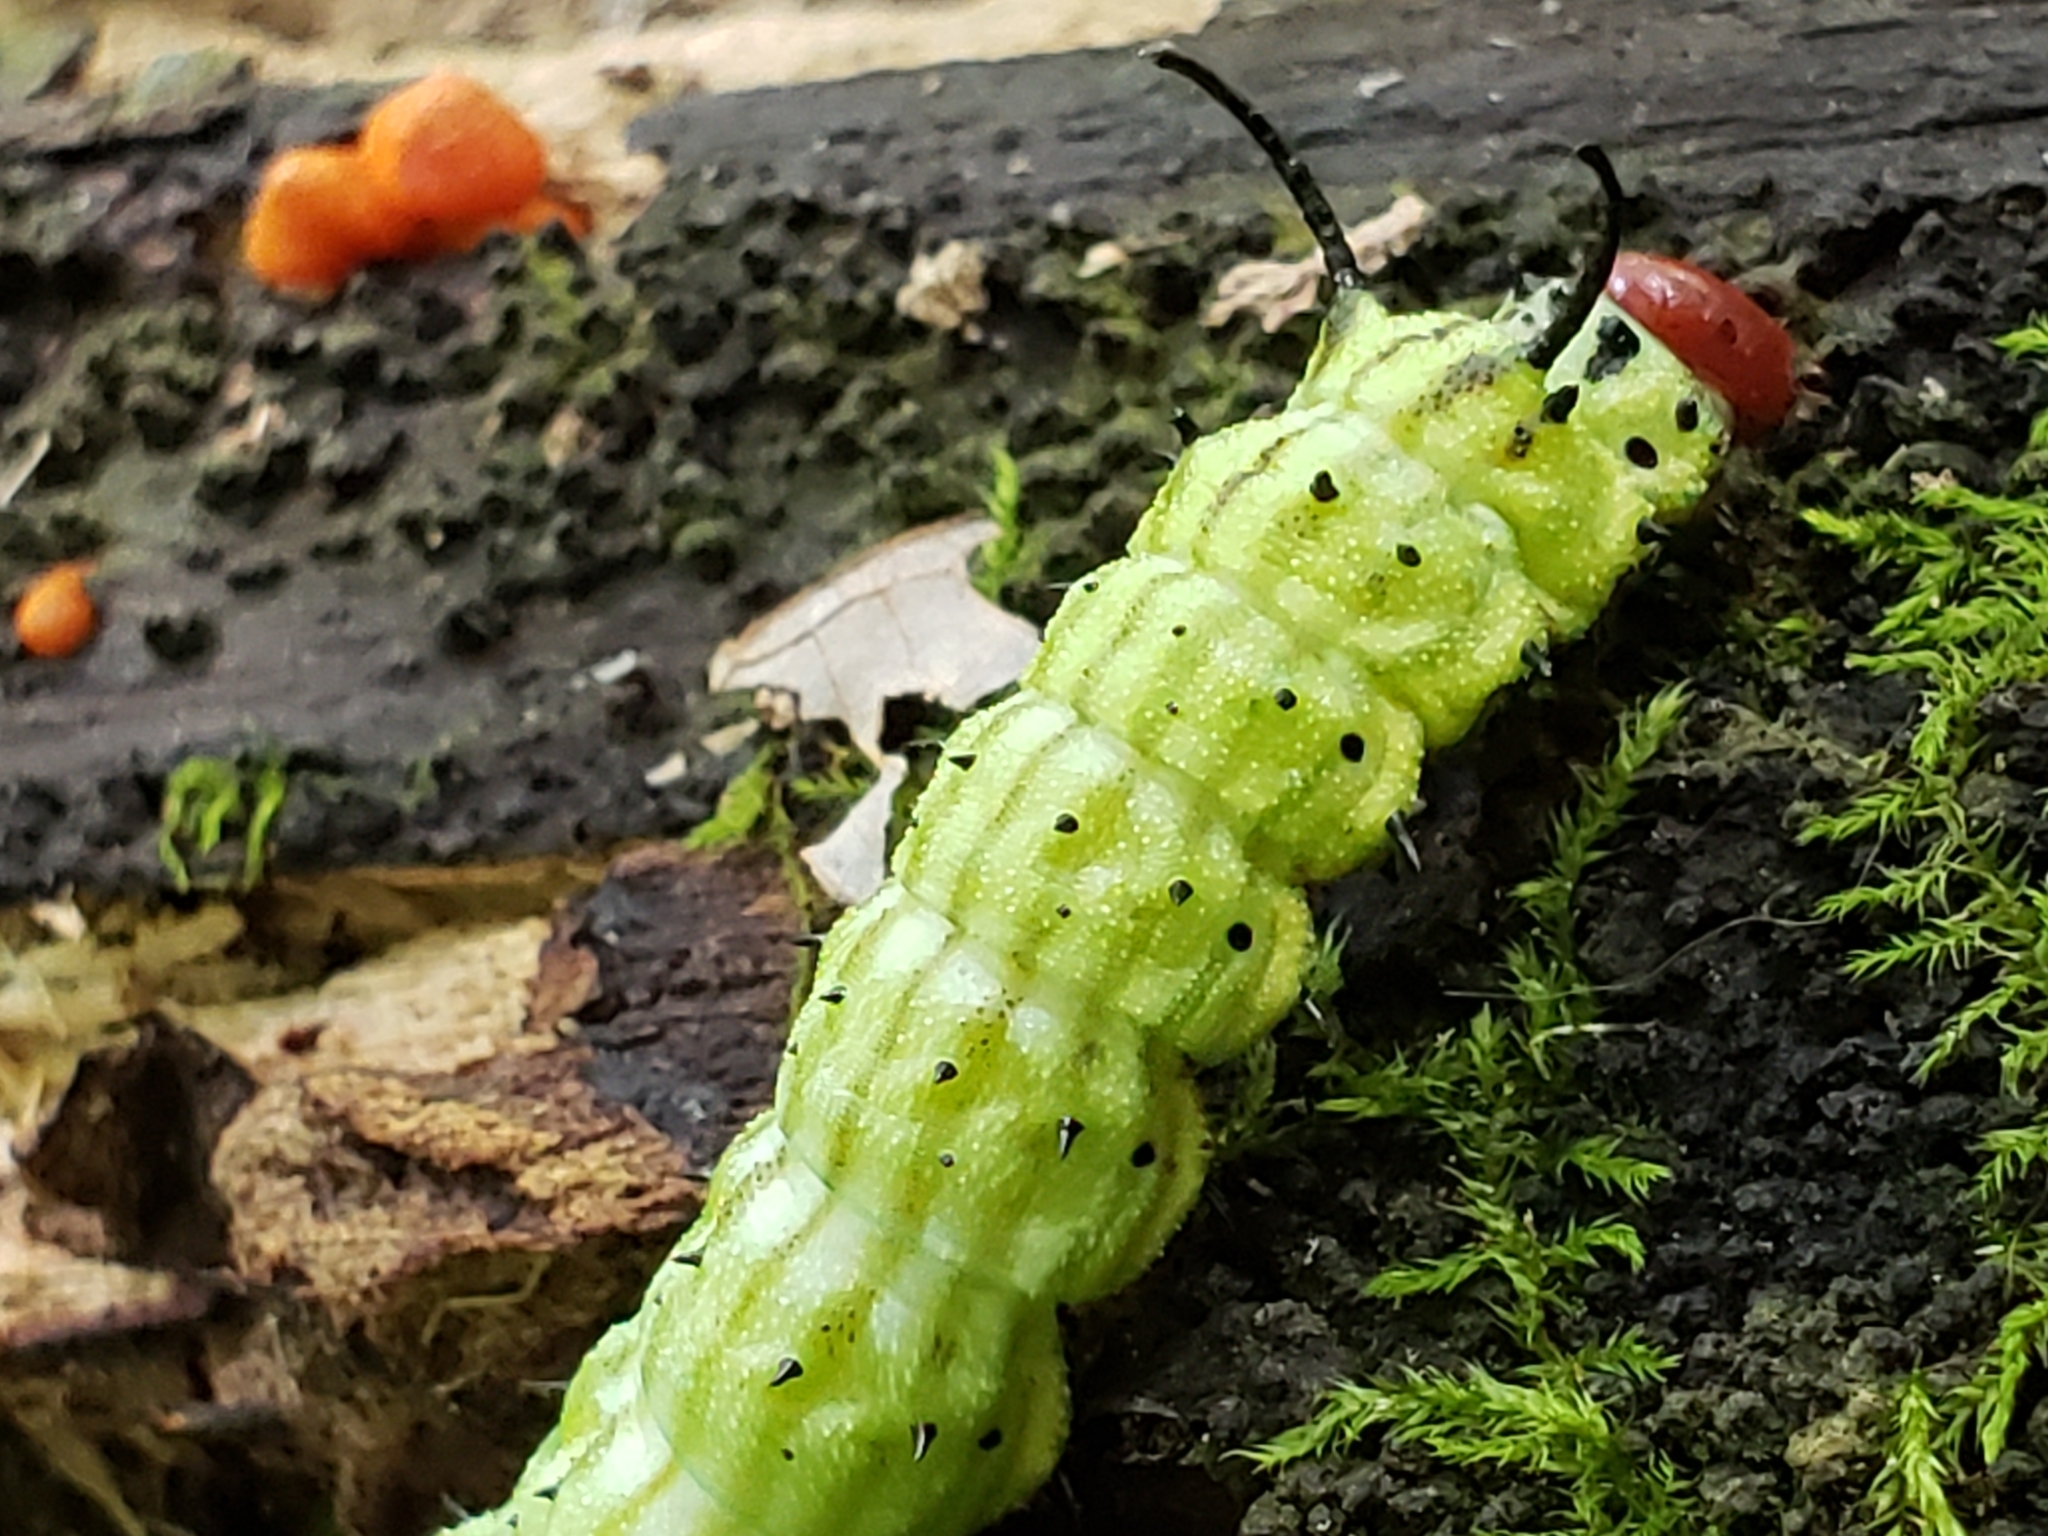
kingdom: Animalia
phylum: Arthropoda
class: Insecta
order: Lepidoptera
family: Saturniidae
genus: Dryocampa
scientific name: Dryocampa rubicunda
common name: Rosy maple moth
